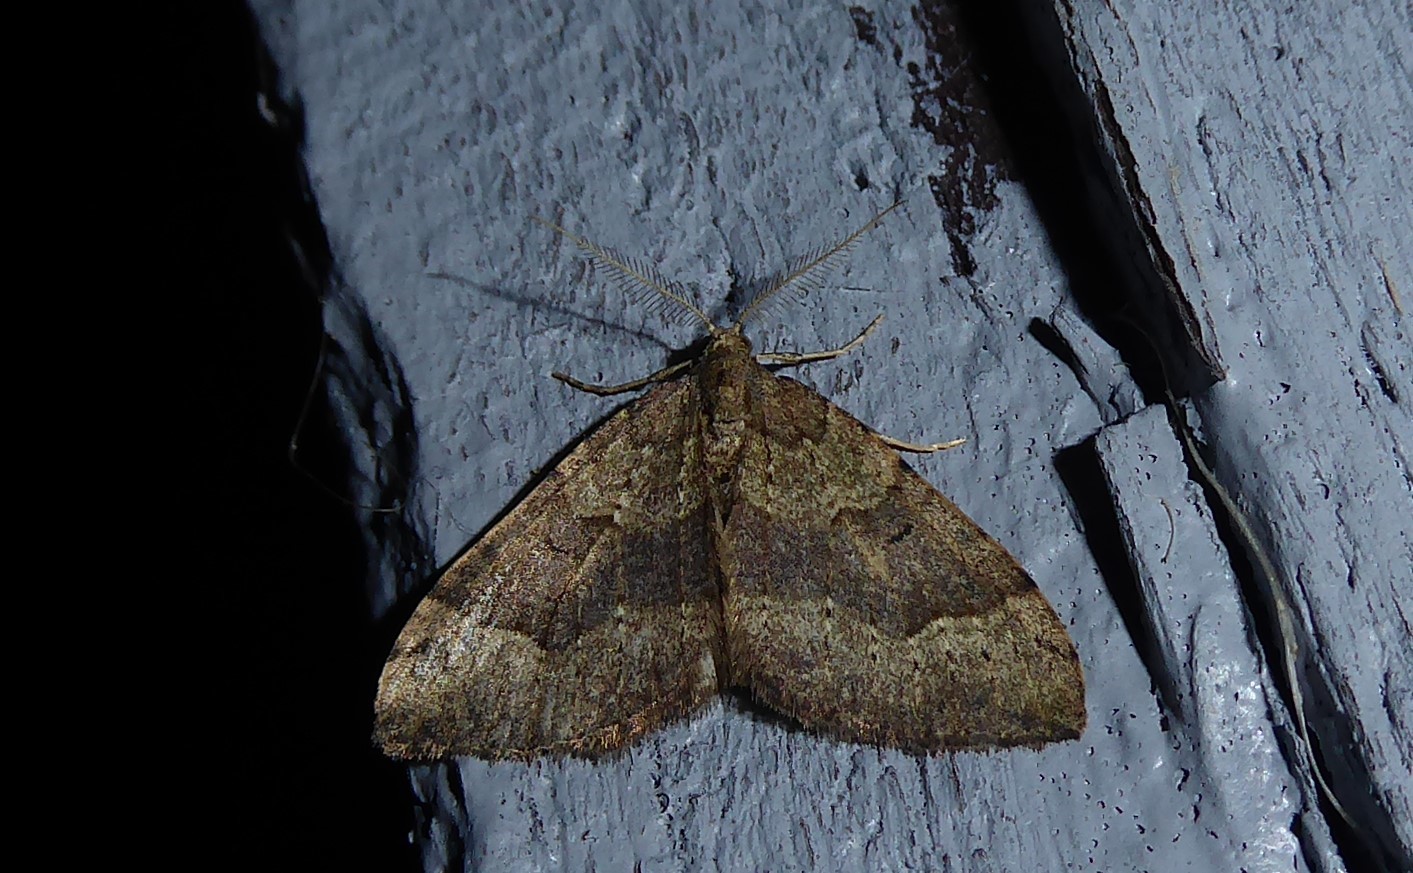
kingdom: Animalia
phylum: Arthropoda
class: Insecta
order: Lepidoptera
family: Geometridae
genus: Epyaxa
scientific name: Epyaxa rosearia
